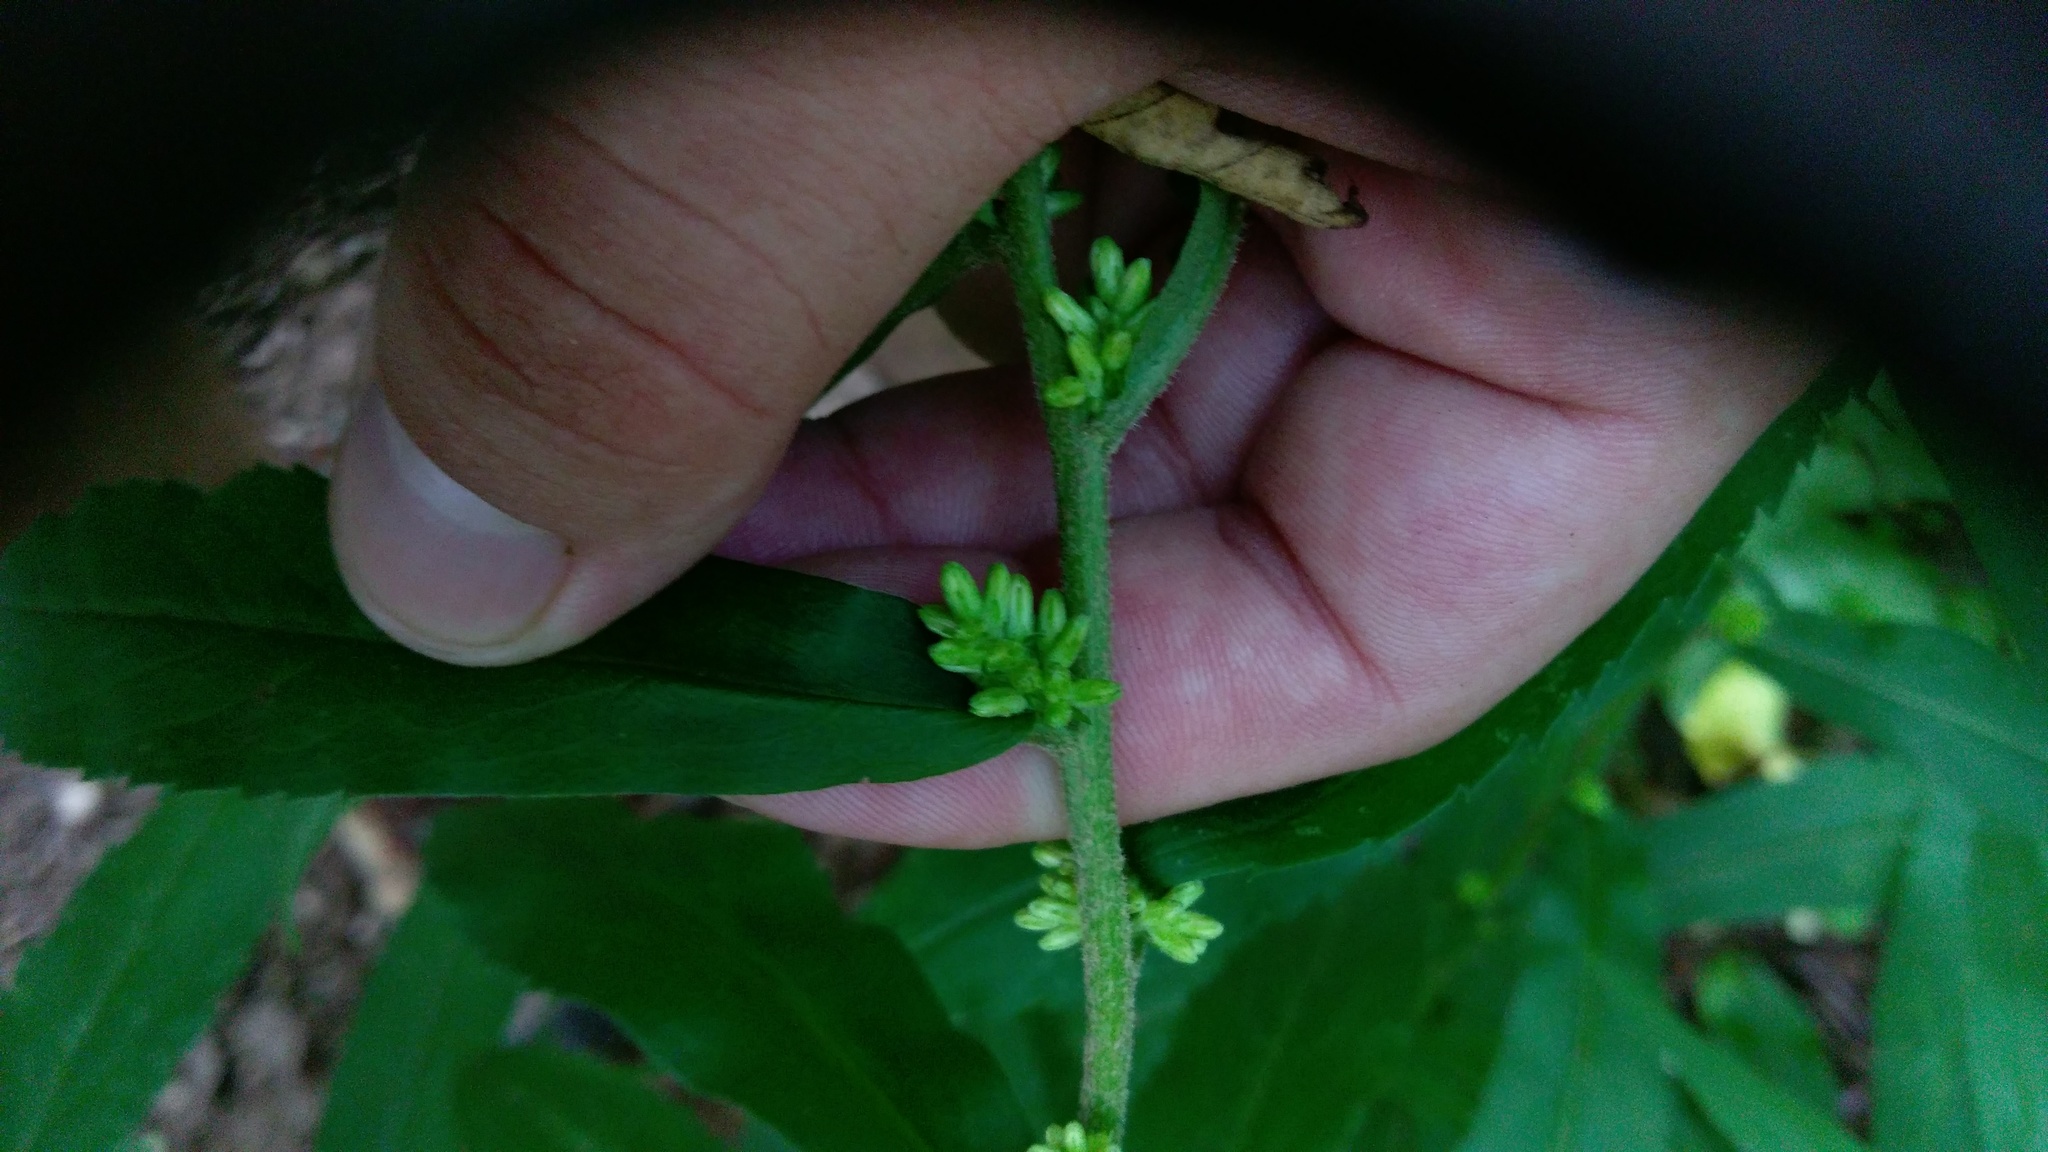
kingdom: Plantae
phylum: Tracheophyta
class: Magnoliopsida
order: Asterales
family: Asteraceae
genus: Solidago
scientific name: Solidago curtisii
